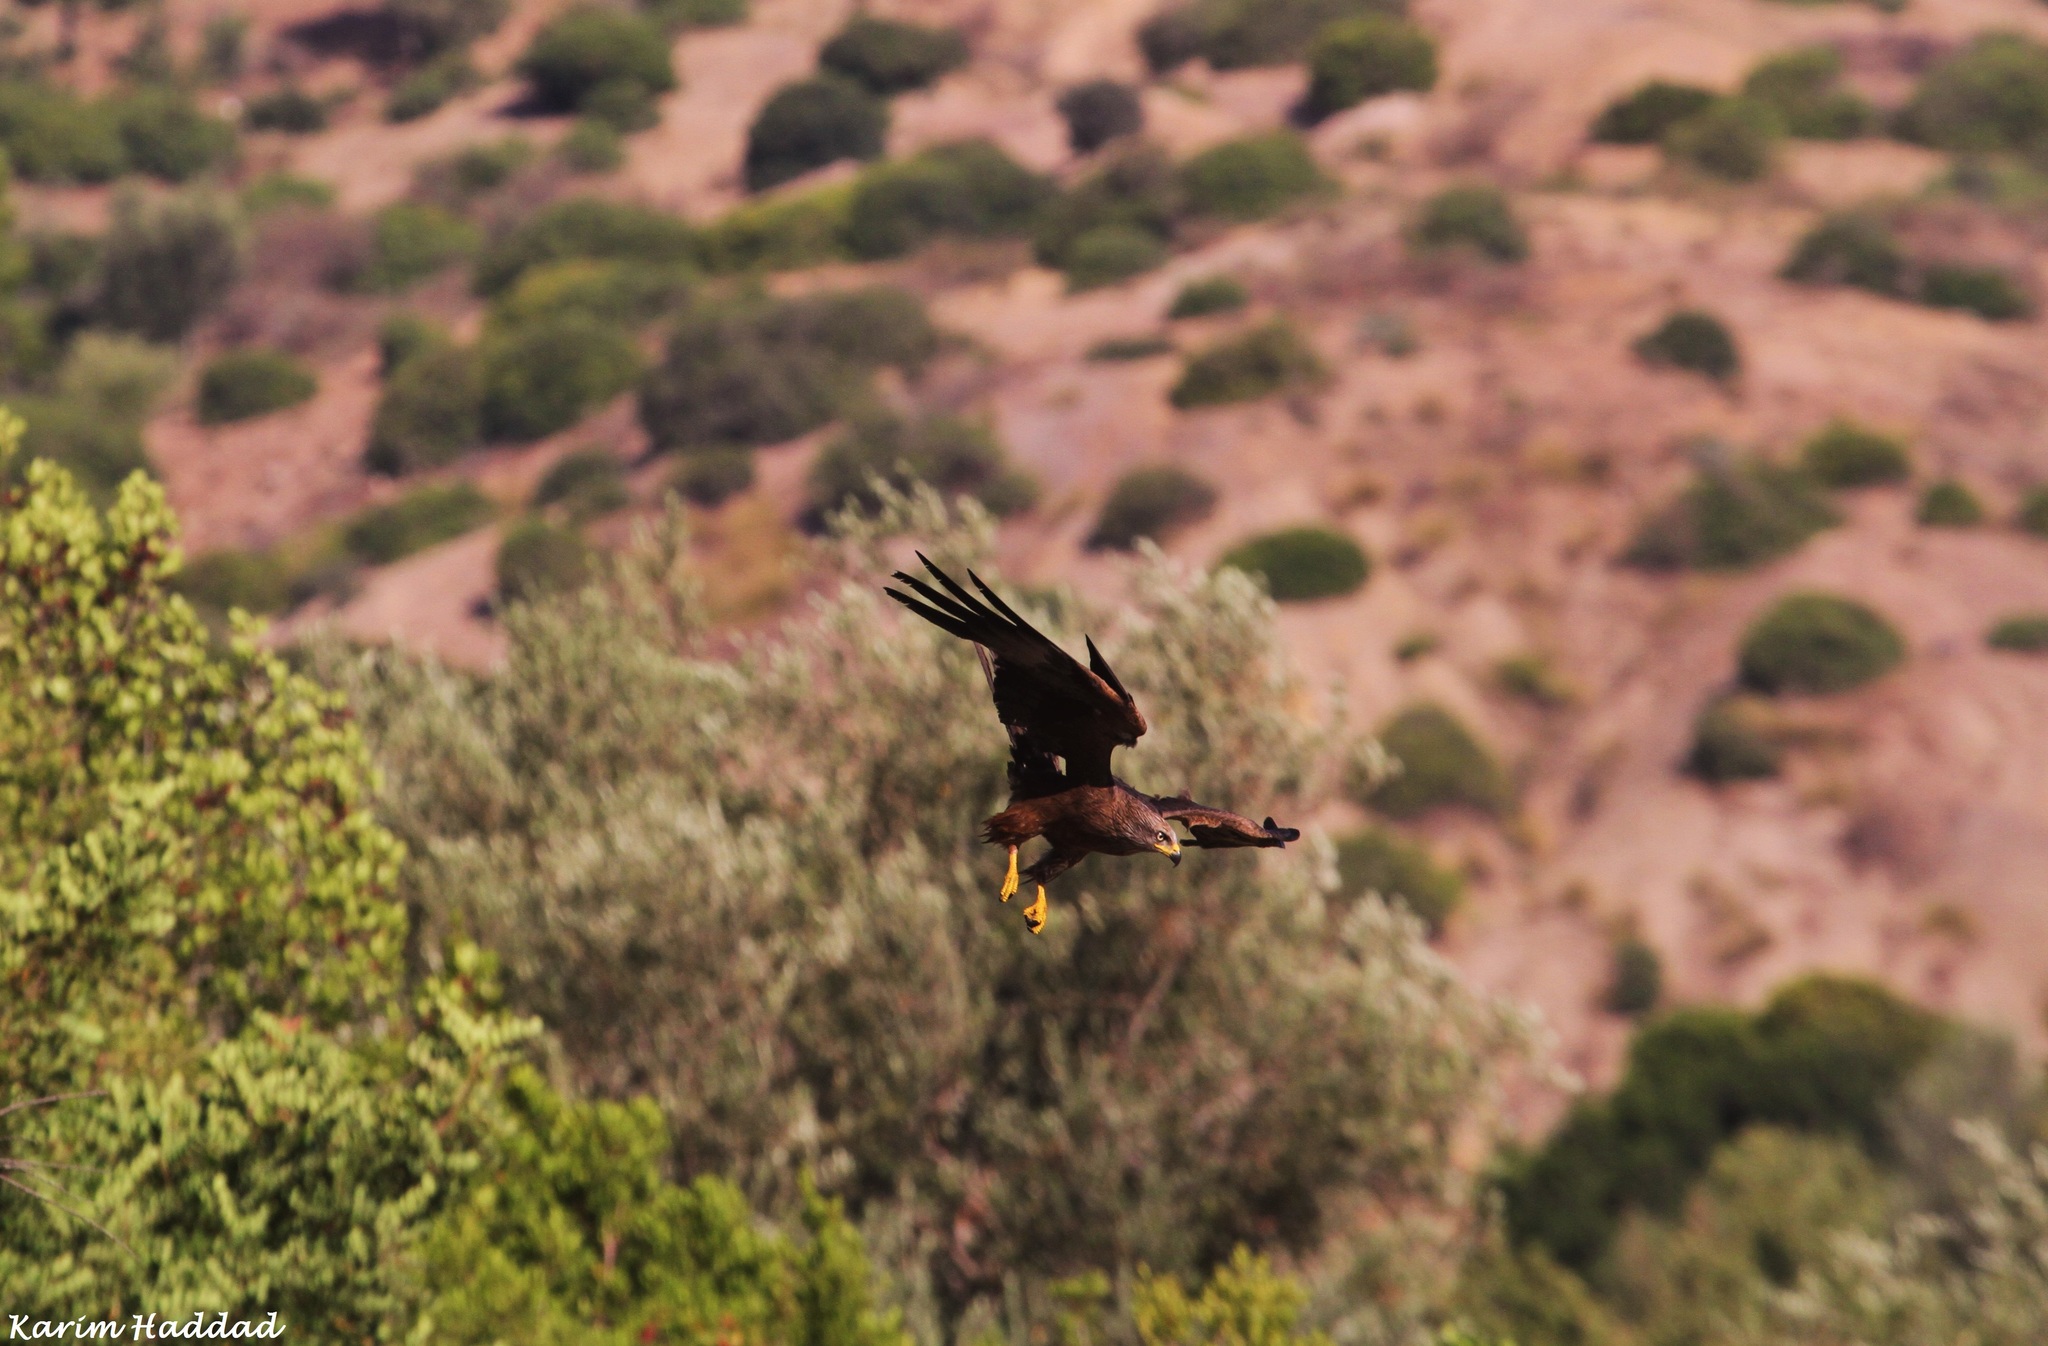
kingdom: Animalia
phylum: Chordata
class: Aves
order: Accipitriformes
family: Accipitridae
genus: Milvus
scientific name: Milvus migrans
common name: Black kite
